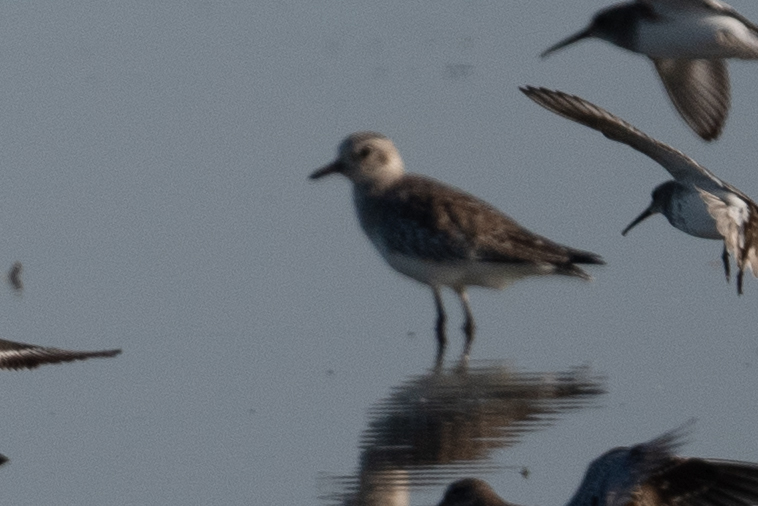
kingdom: Animalia
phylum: Chordata
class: Aves
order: Charadriiformes
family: Charadriidae
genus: Pluvialis
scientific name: Pluvialis squatarola
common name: Grey plover
